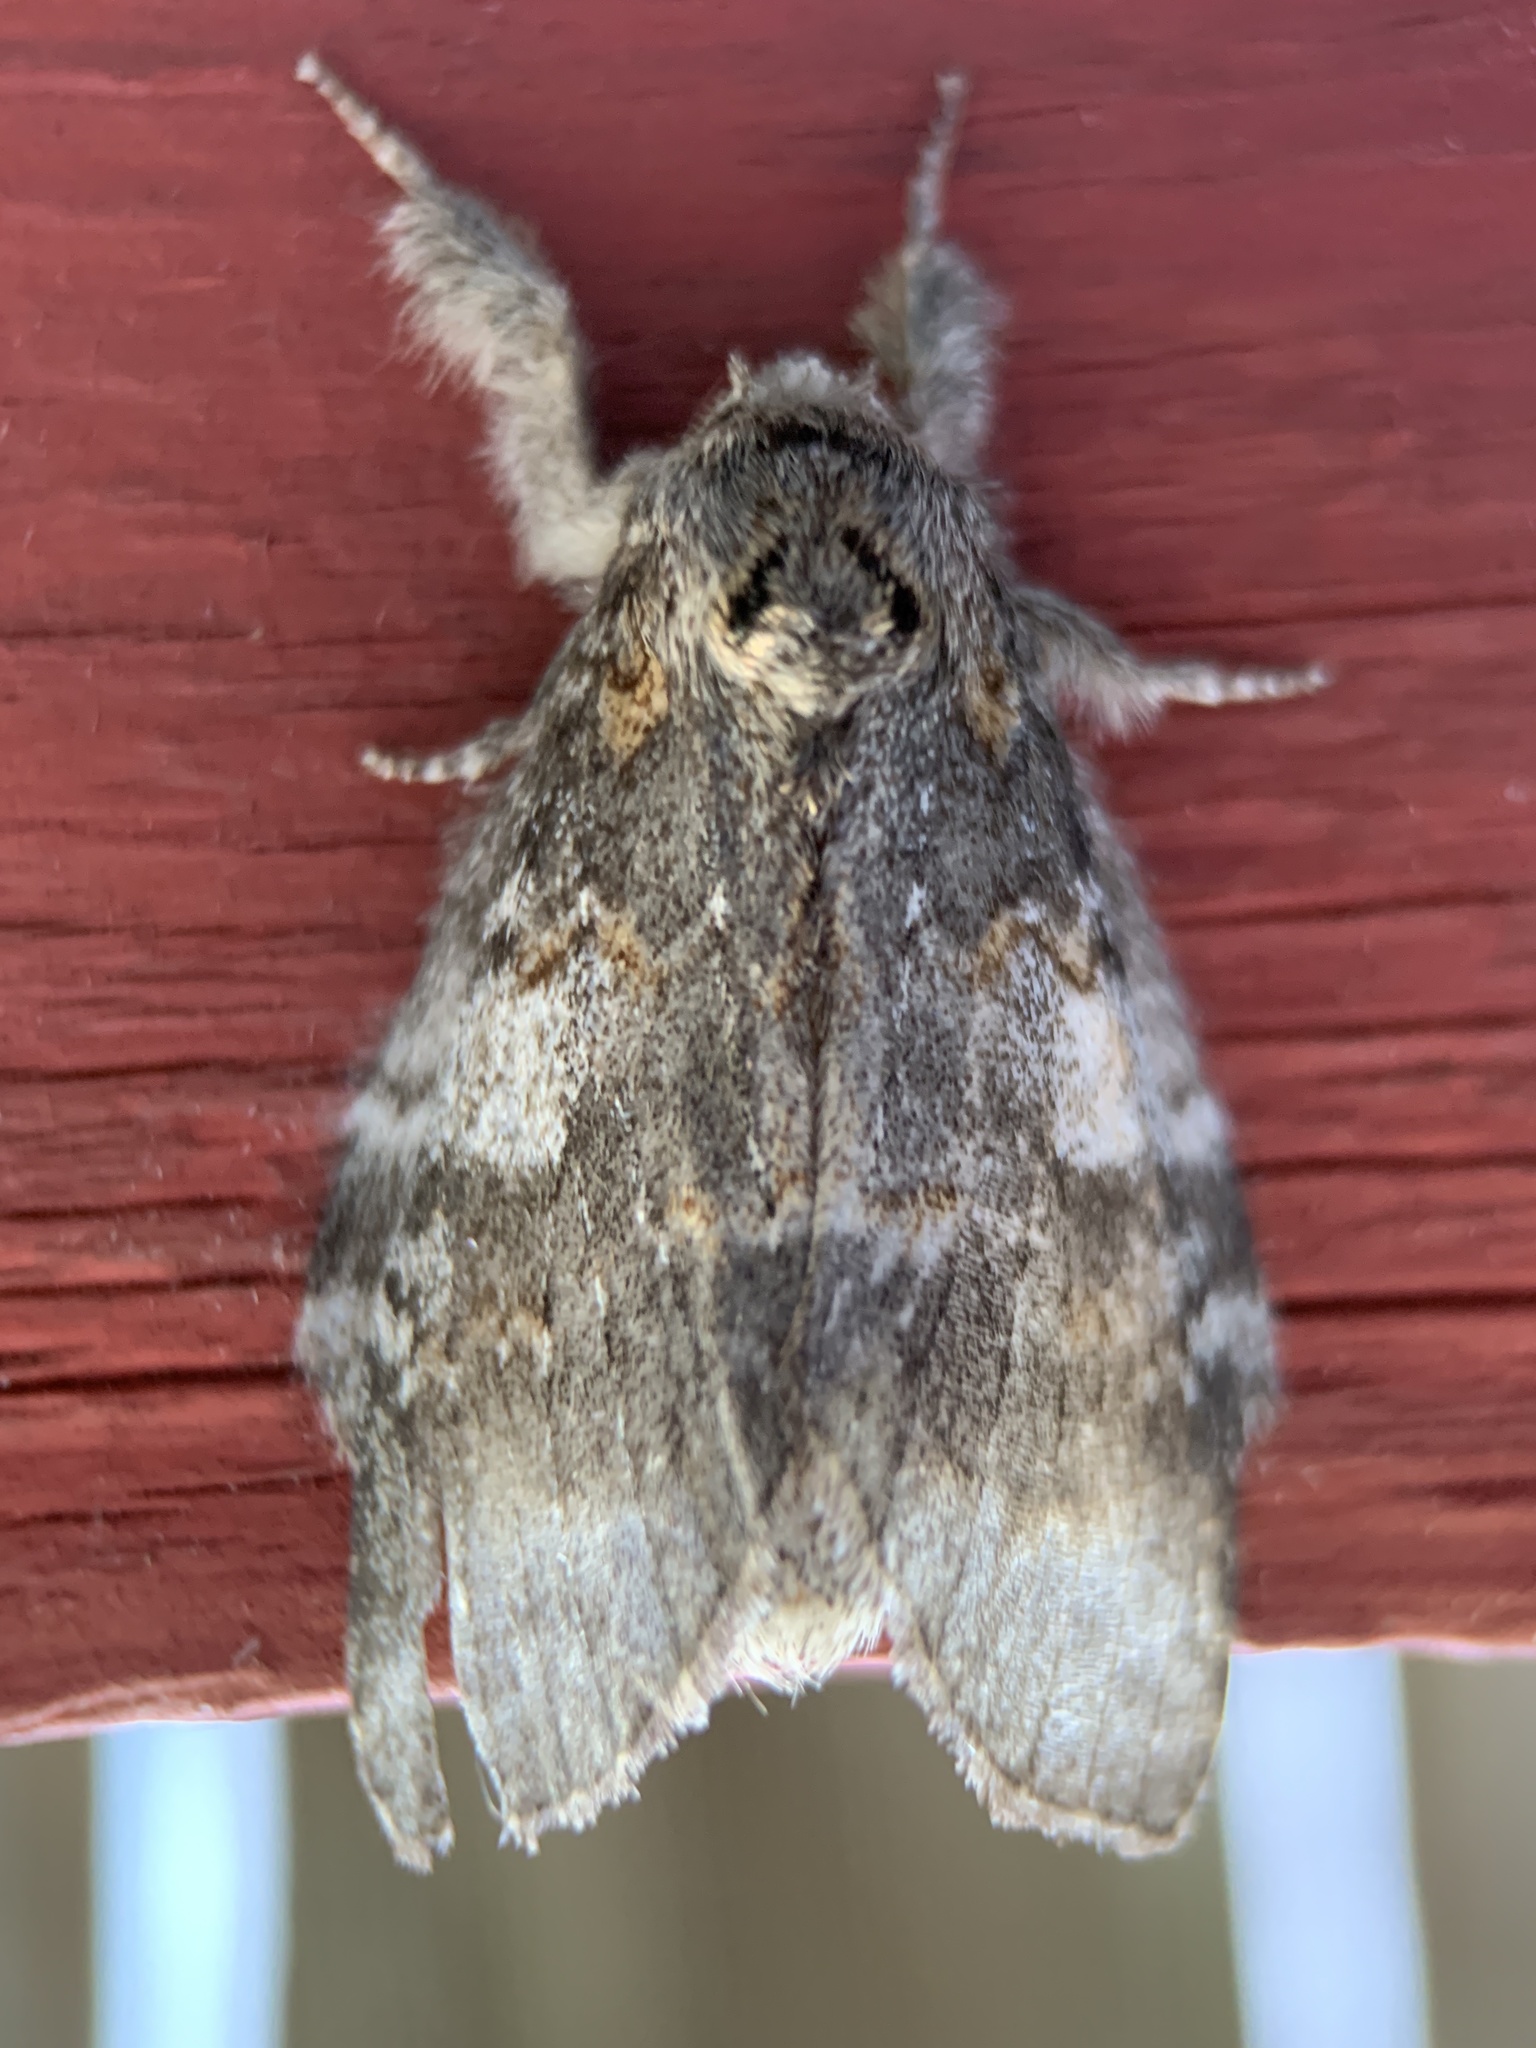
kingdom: Animalia
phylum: Arthropoda
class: Insecta
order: Lepidoptera
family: Notodontidae
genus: Peridea
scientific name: Peridea angulosa
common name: Angulose prominent
